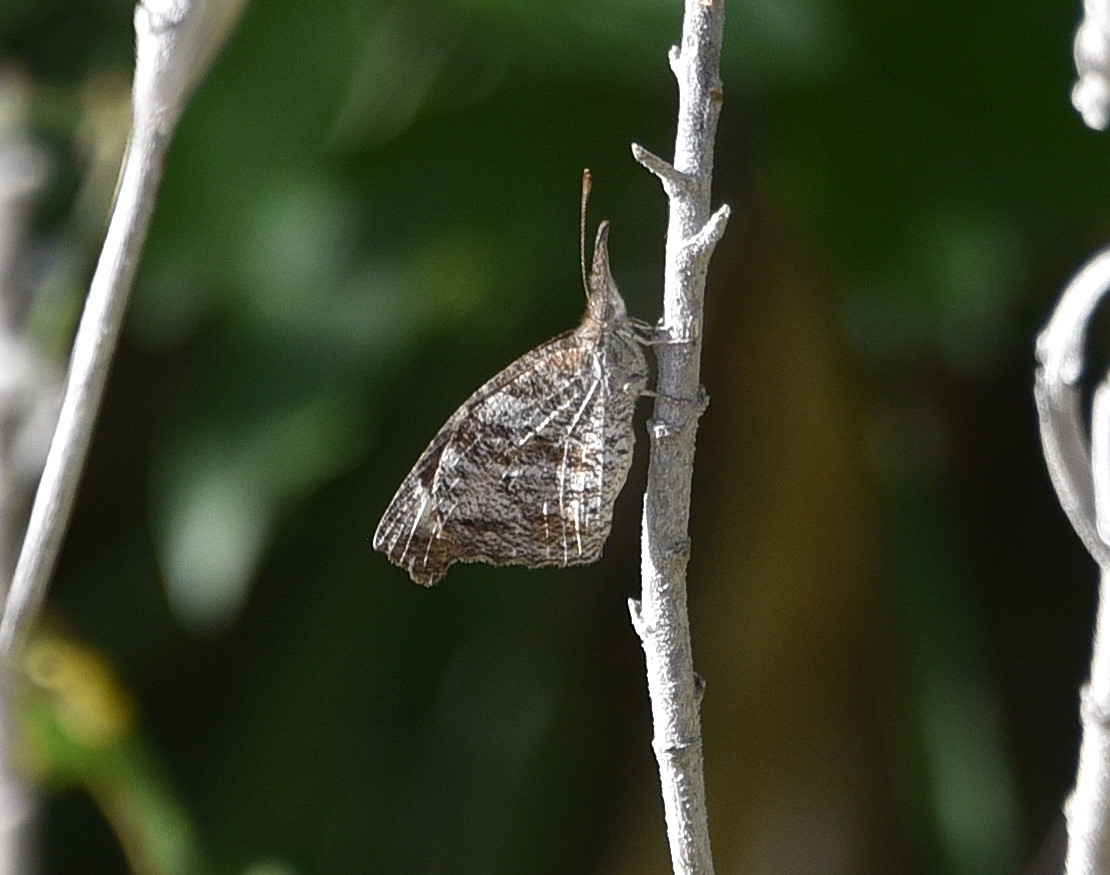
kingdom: Animalia
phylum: Arthropoda
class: Insecta
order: Lepidoptera
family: Nymphalidae
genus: Libytheana
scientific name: Libytheana carinenta
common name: American snout
